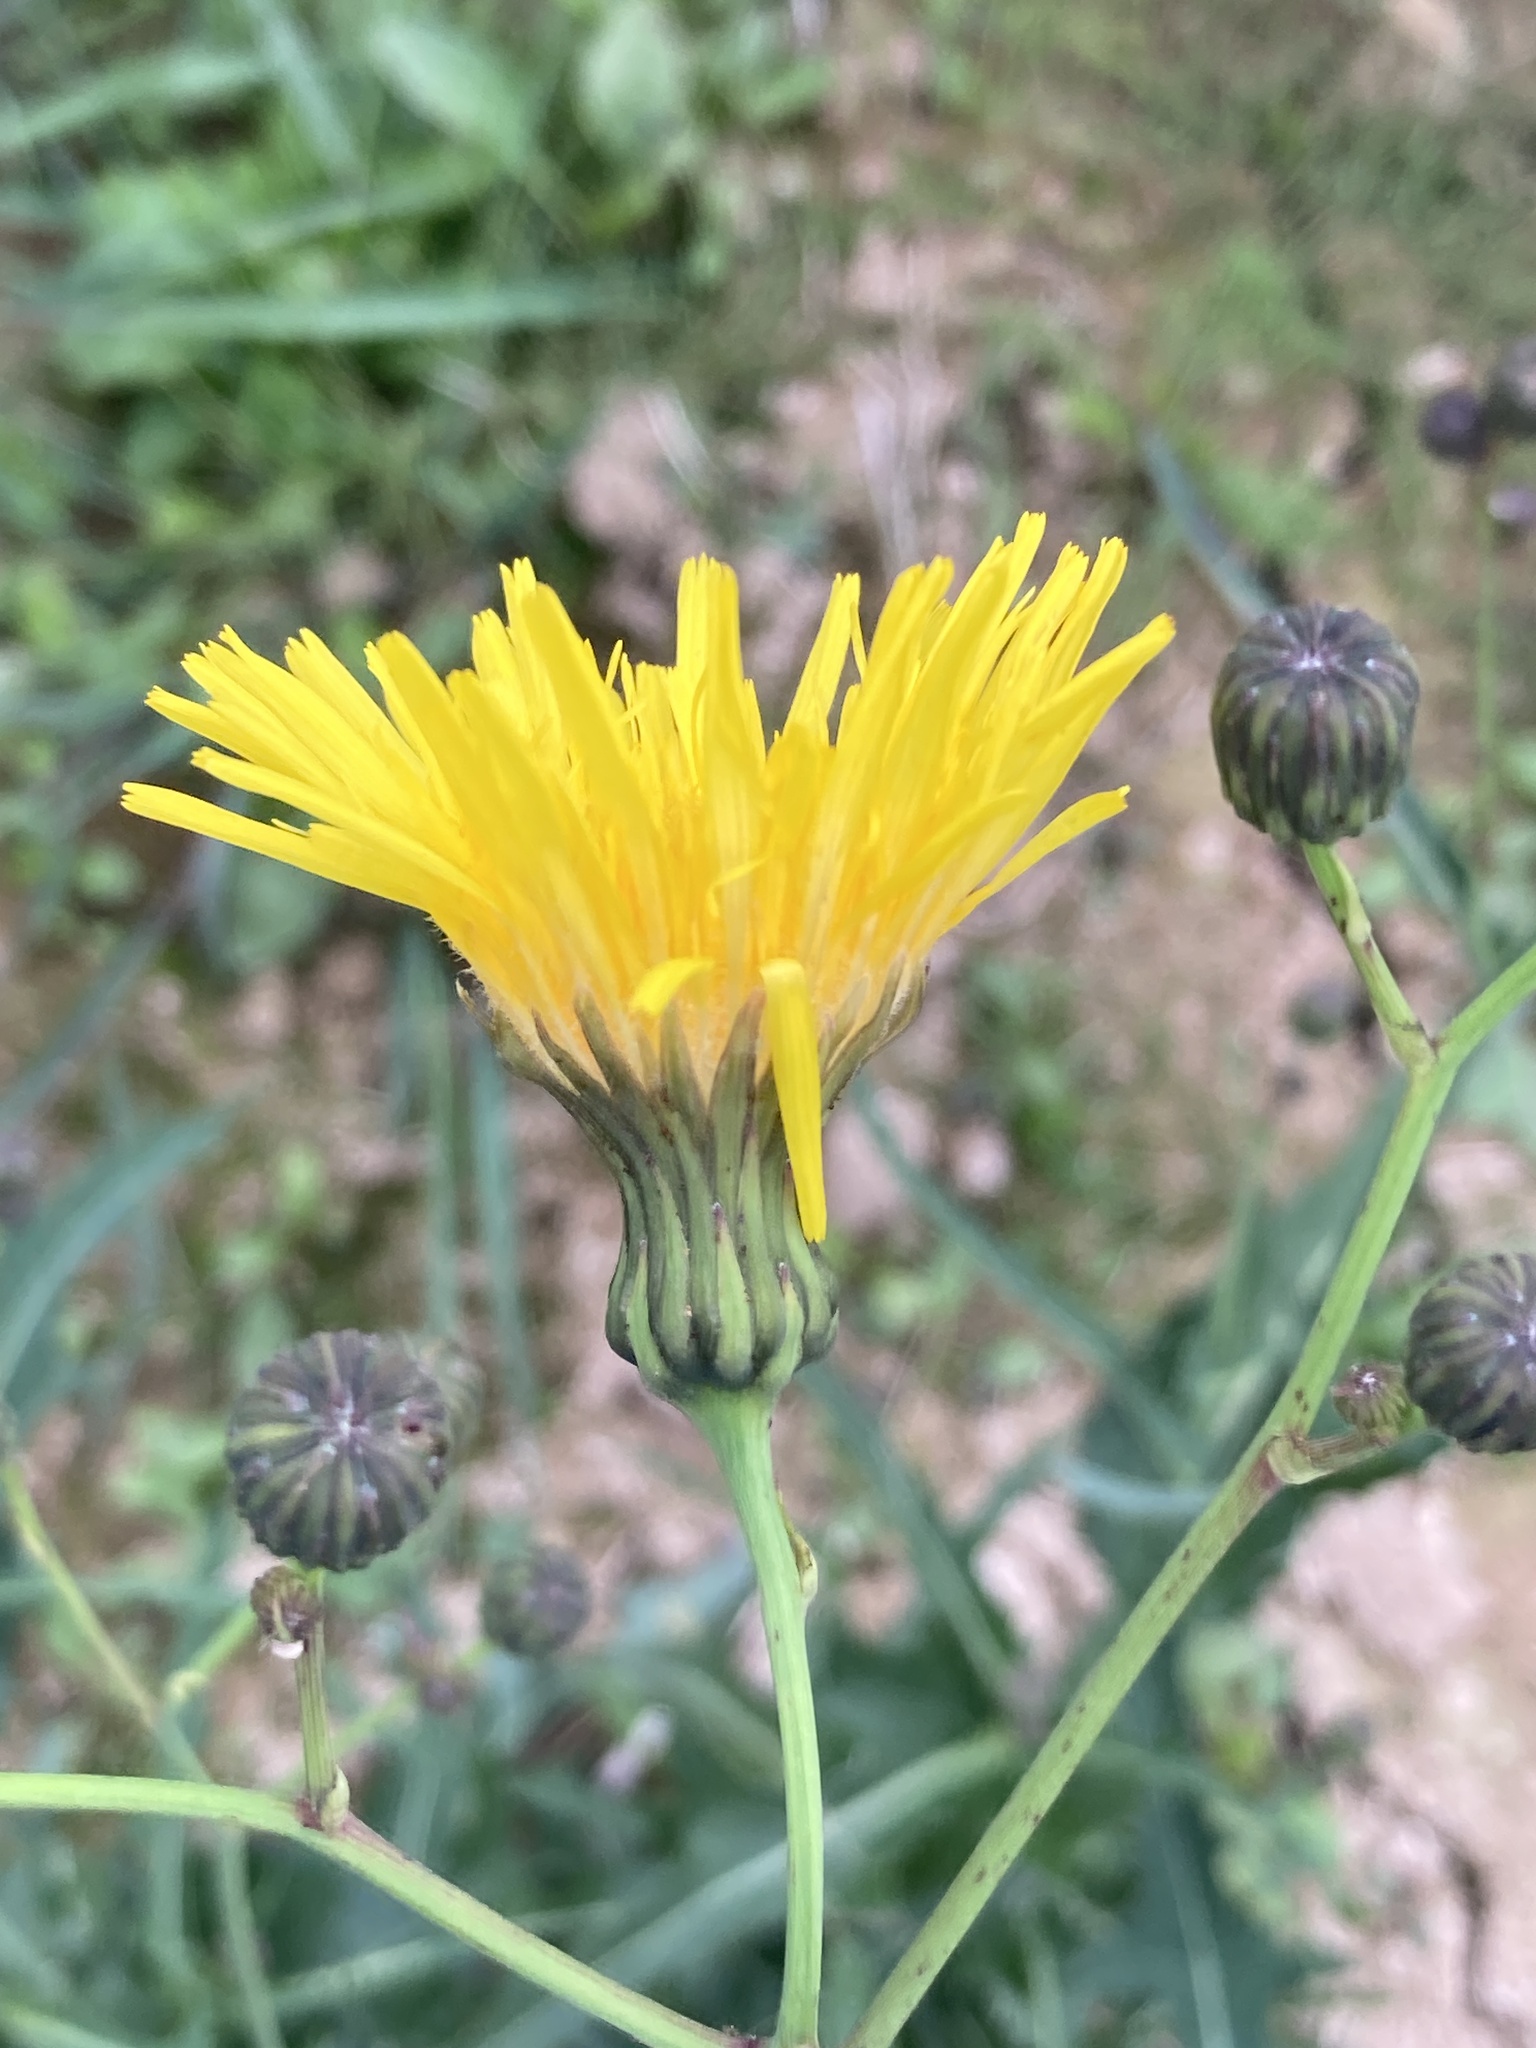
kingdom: Plantae
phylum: Tracheophyta
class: Magnoliopsida
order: Asterales
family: Asteraceae
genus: Sonchus
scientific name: Sonchus arvensis
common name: Perennial sow-thistle
